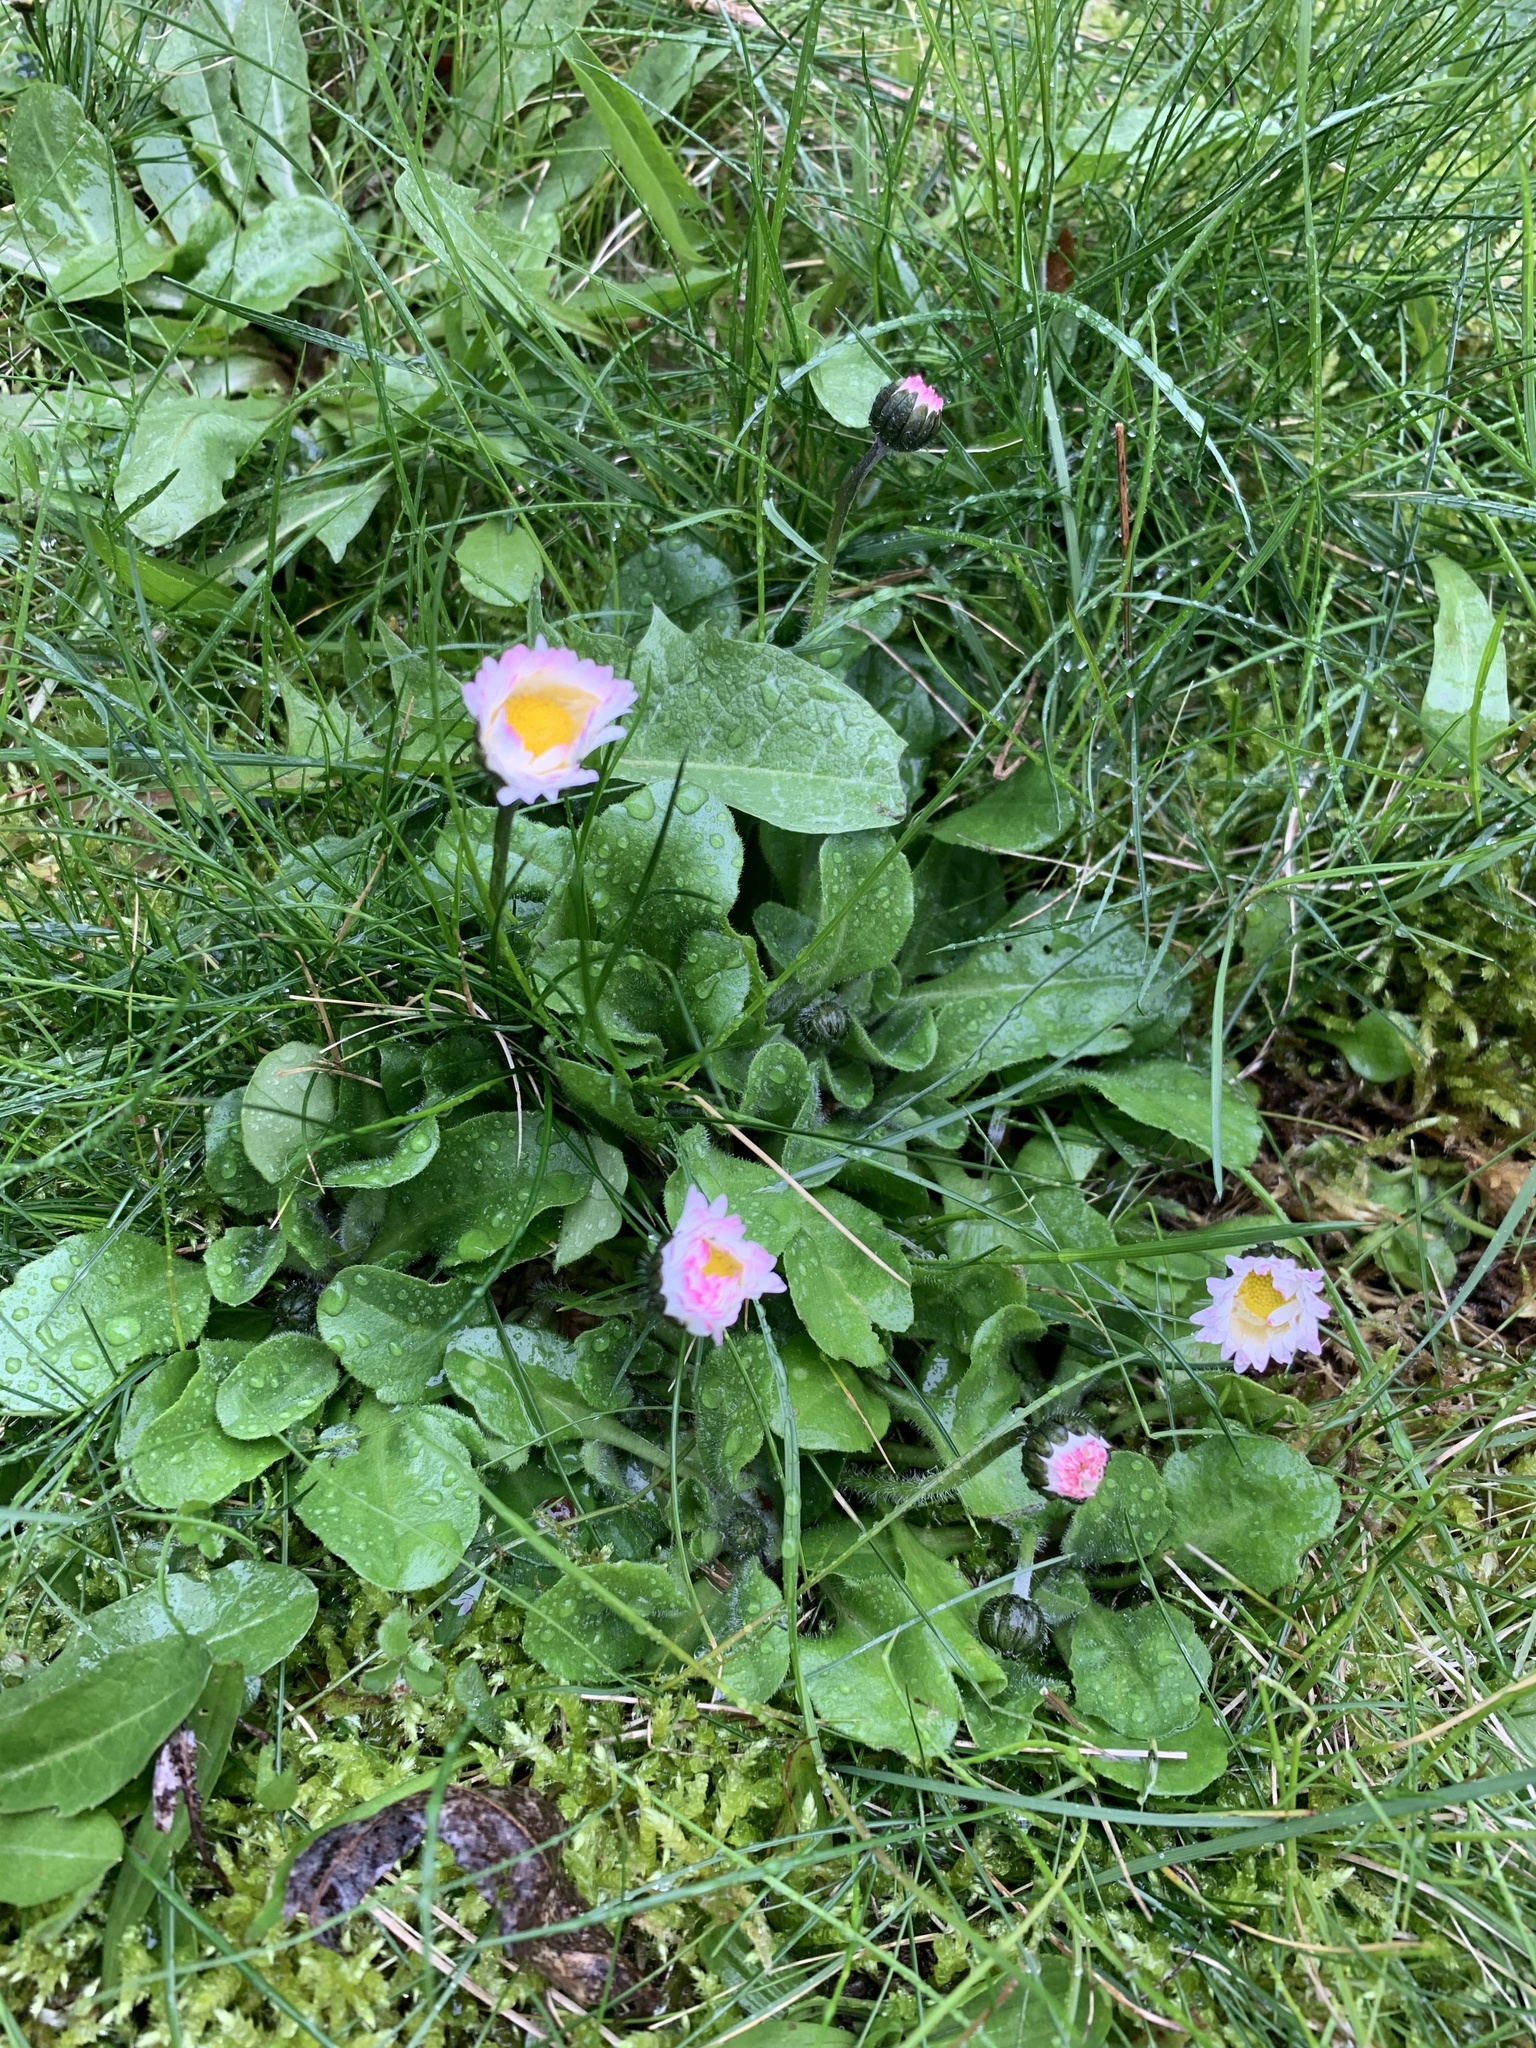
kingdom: Plantae
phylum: Tracheophyta
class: Magnoliopsida
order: Asterales
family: Asteraceae
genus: Bellis
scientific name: Bellis perennis
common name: Lawndaisy
